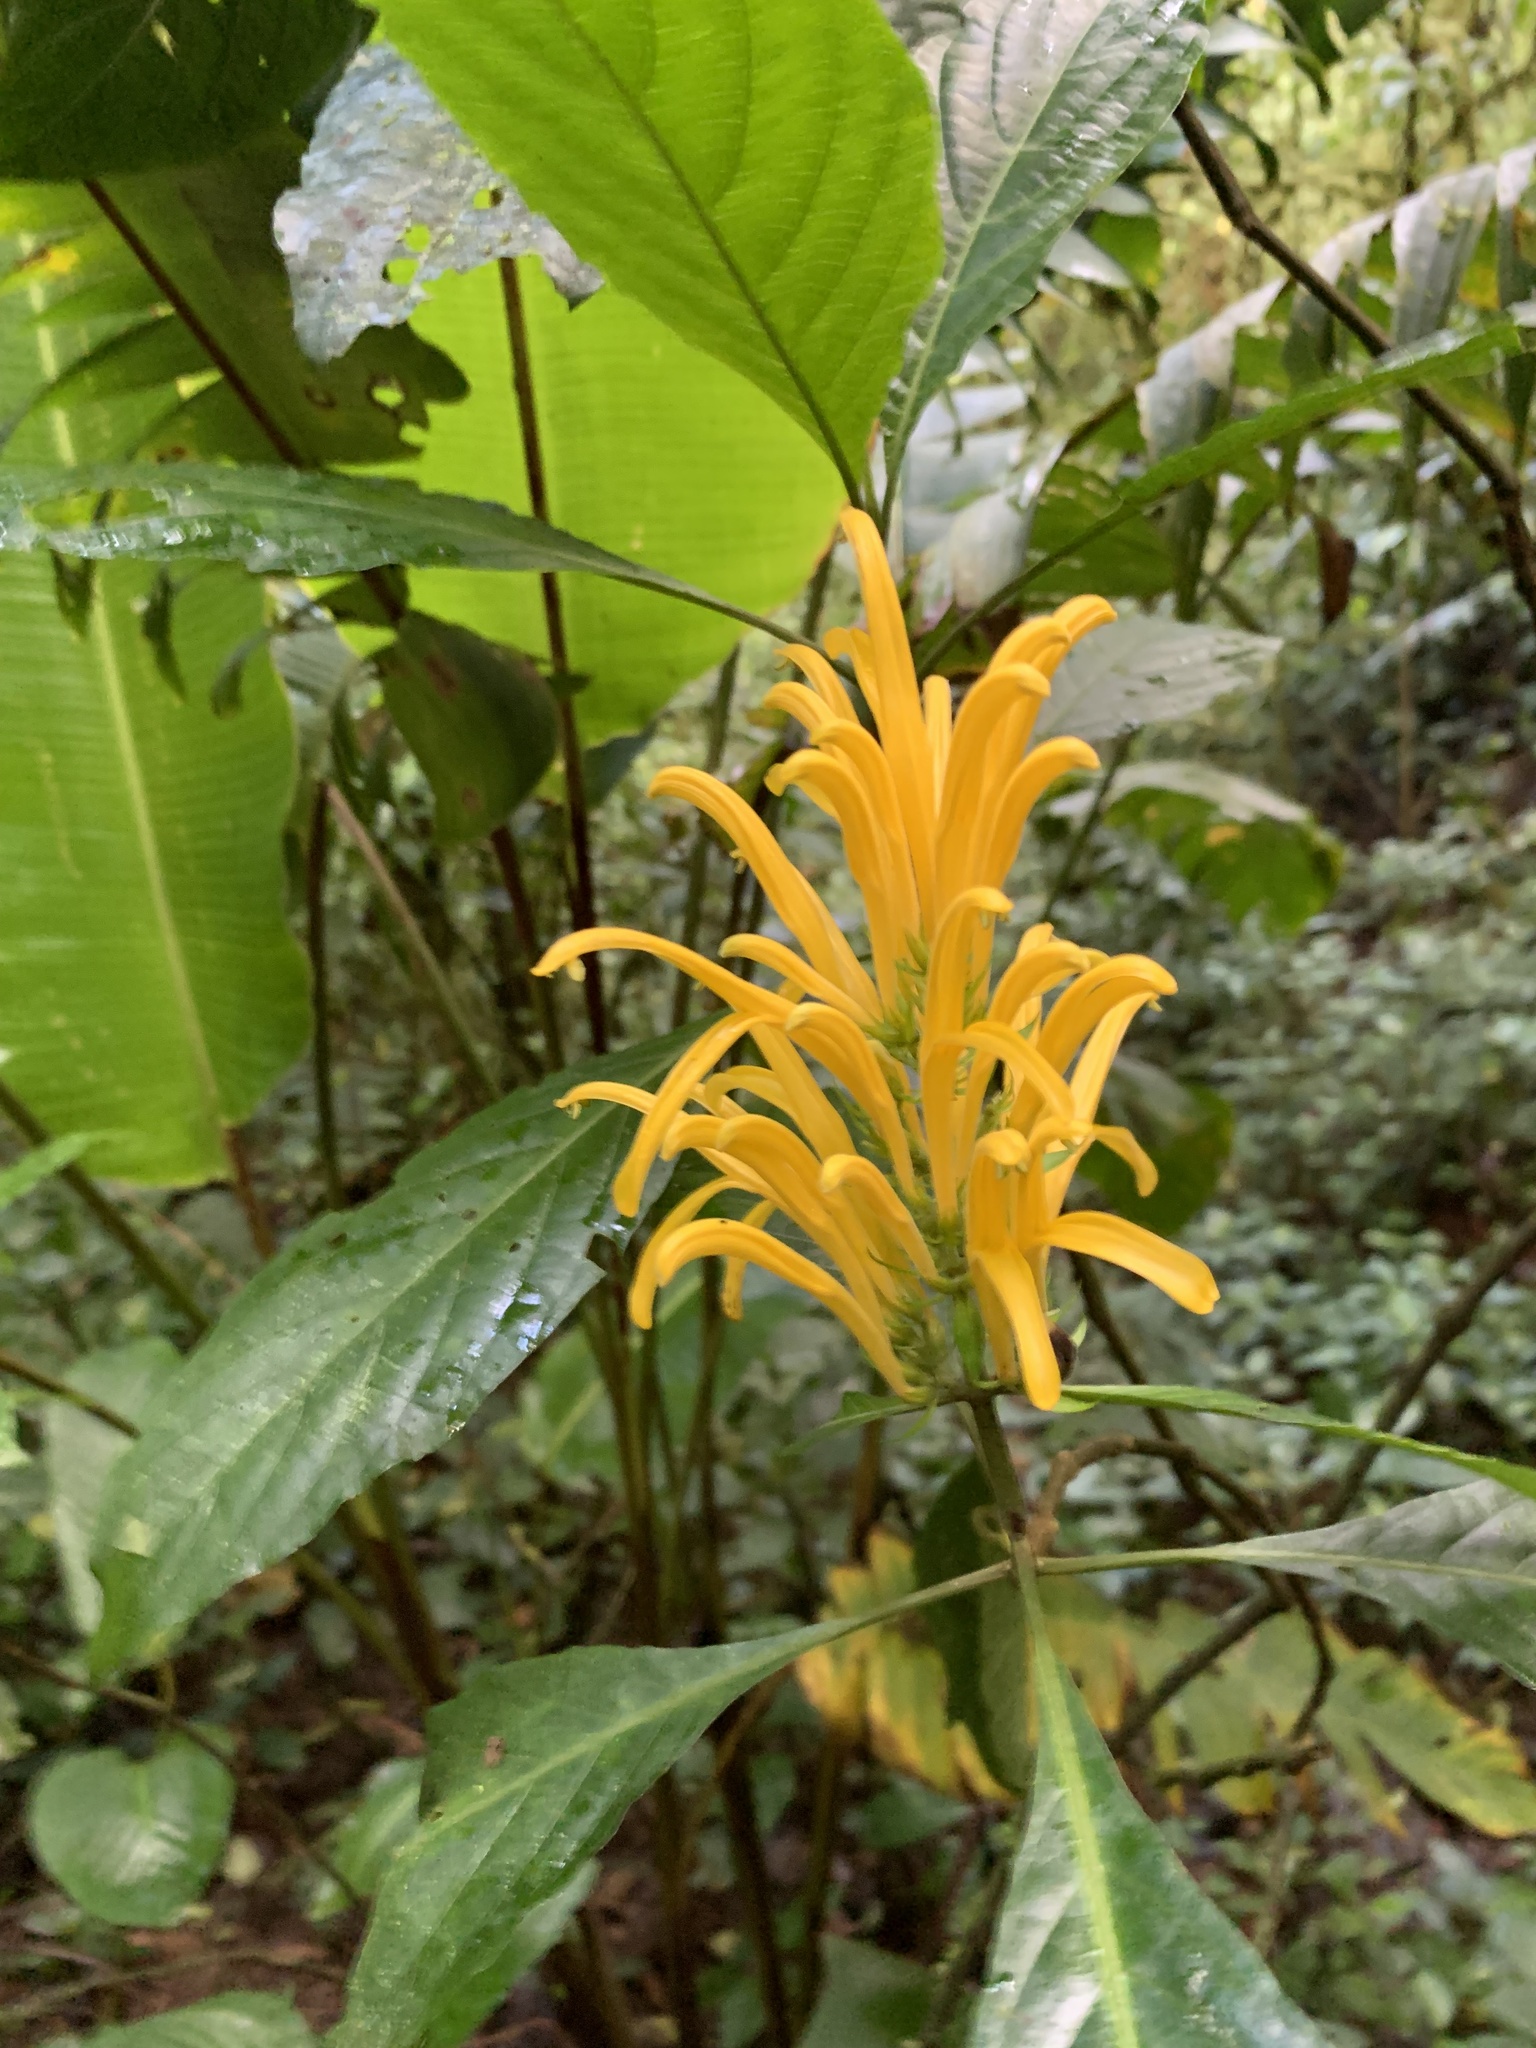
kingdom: Plantae
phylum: Tracheophyta
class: Magnoliopsida
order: Lamiales
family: Acanthaceae
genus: Justicia
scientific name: Justicia aurea
